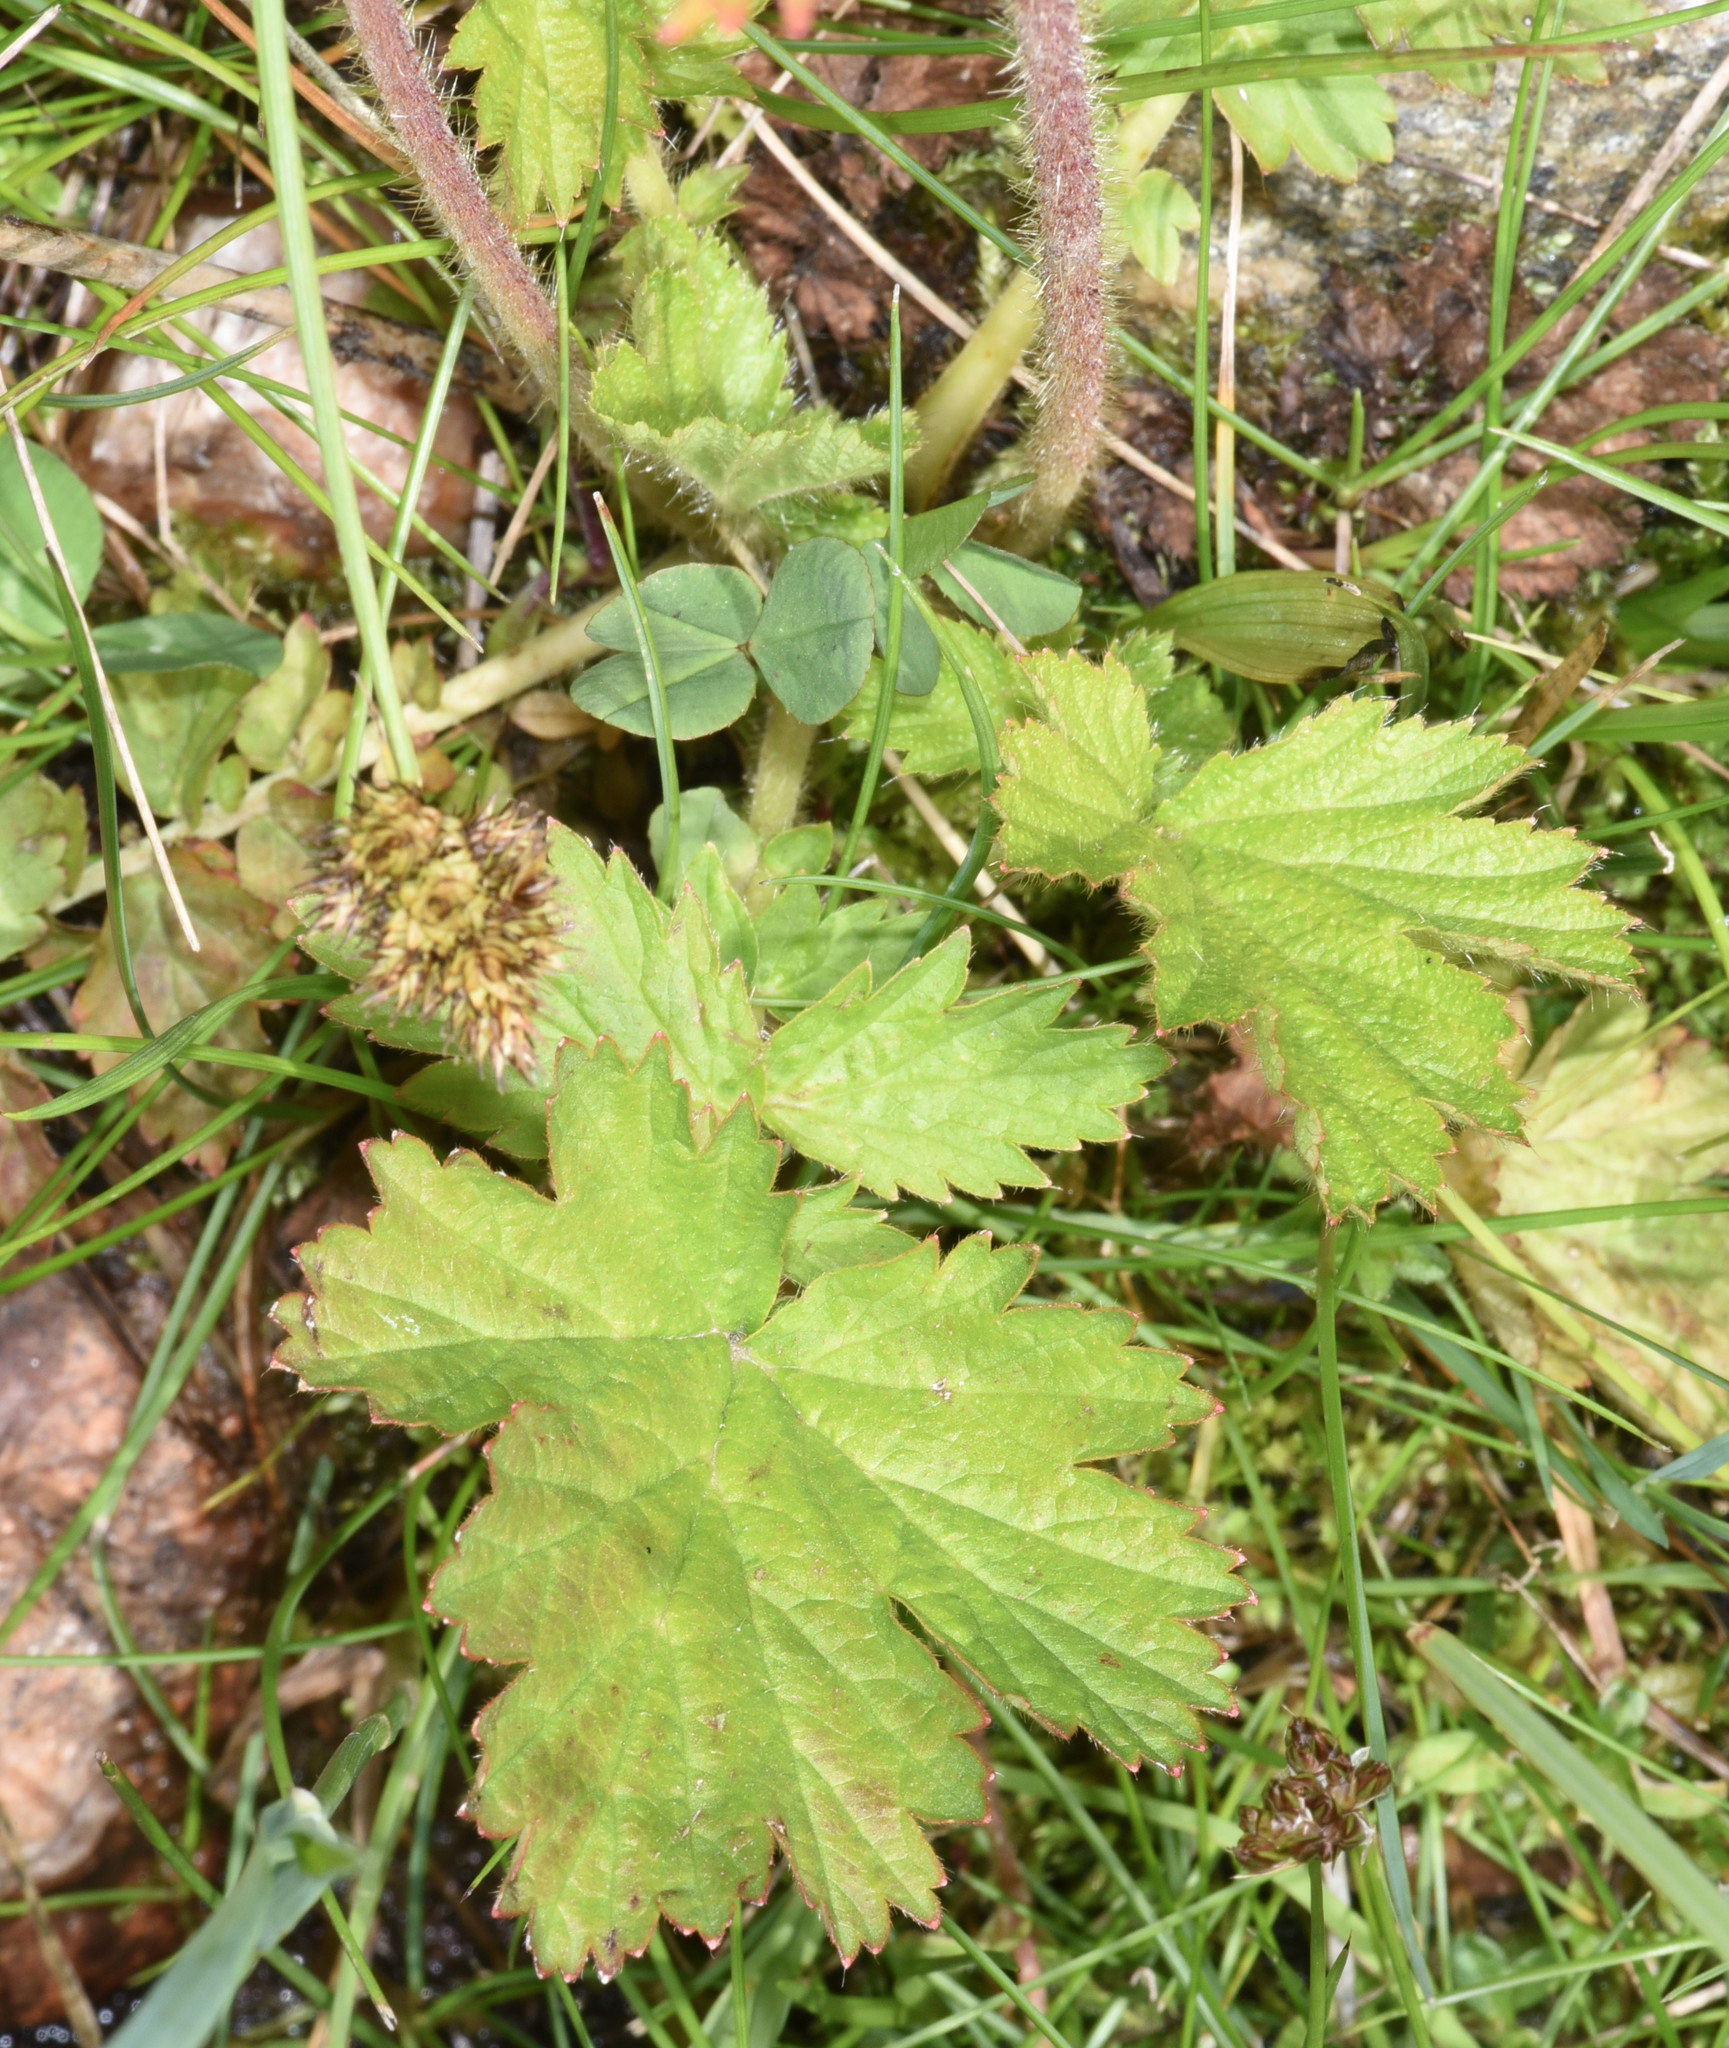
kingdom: Plantae
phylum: Tracheophyta
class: Magnoliopsida
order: Rosales
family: Rosaceae
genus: Geum
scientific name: Geum macrophyllum
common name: Large-leaved avens
